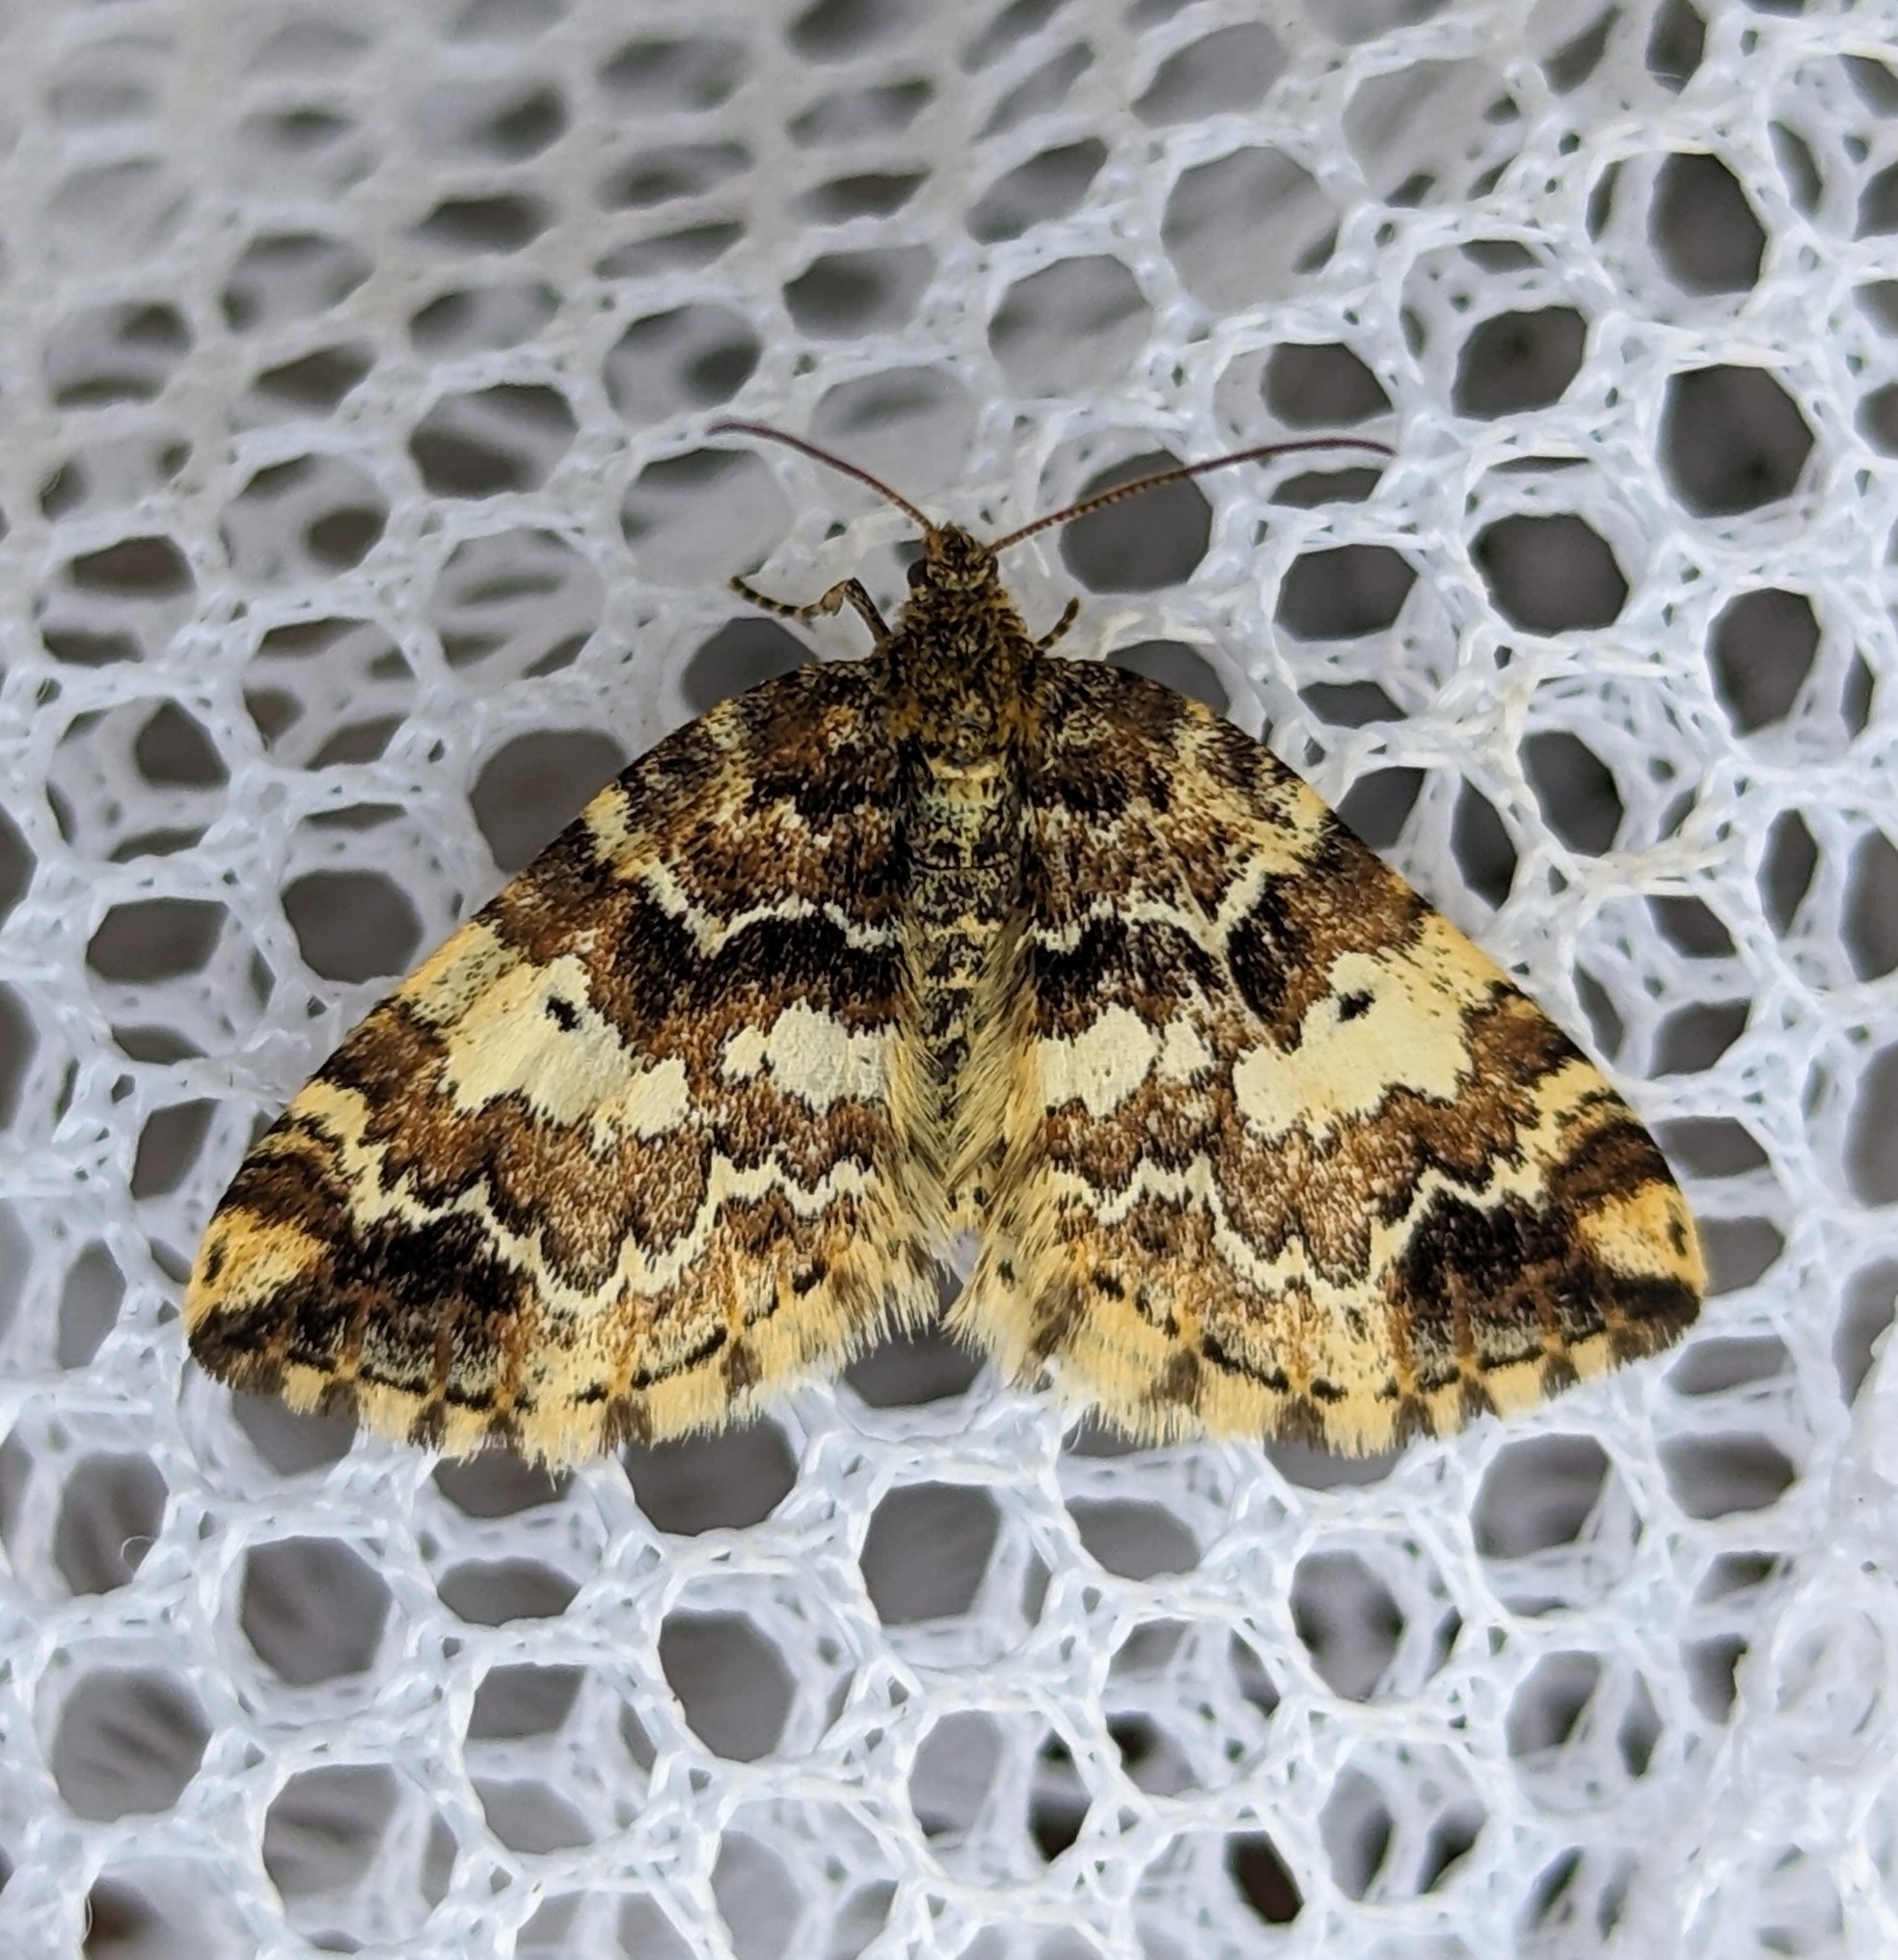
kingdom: Animalia
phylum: Arthropoda
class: Insecta
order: Lepidoptera
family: Geometridae
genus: Enchoria
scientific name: Enchoria lacteata
